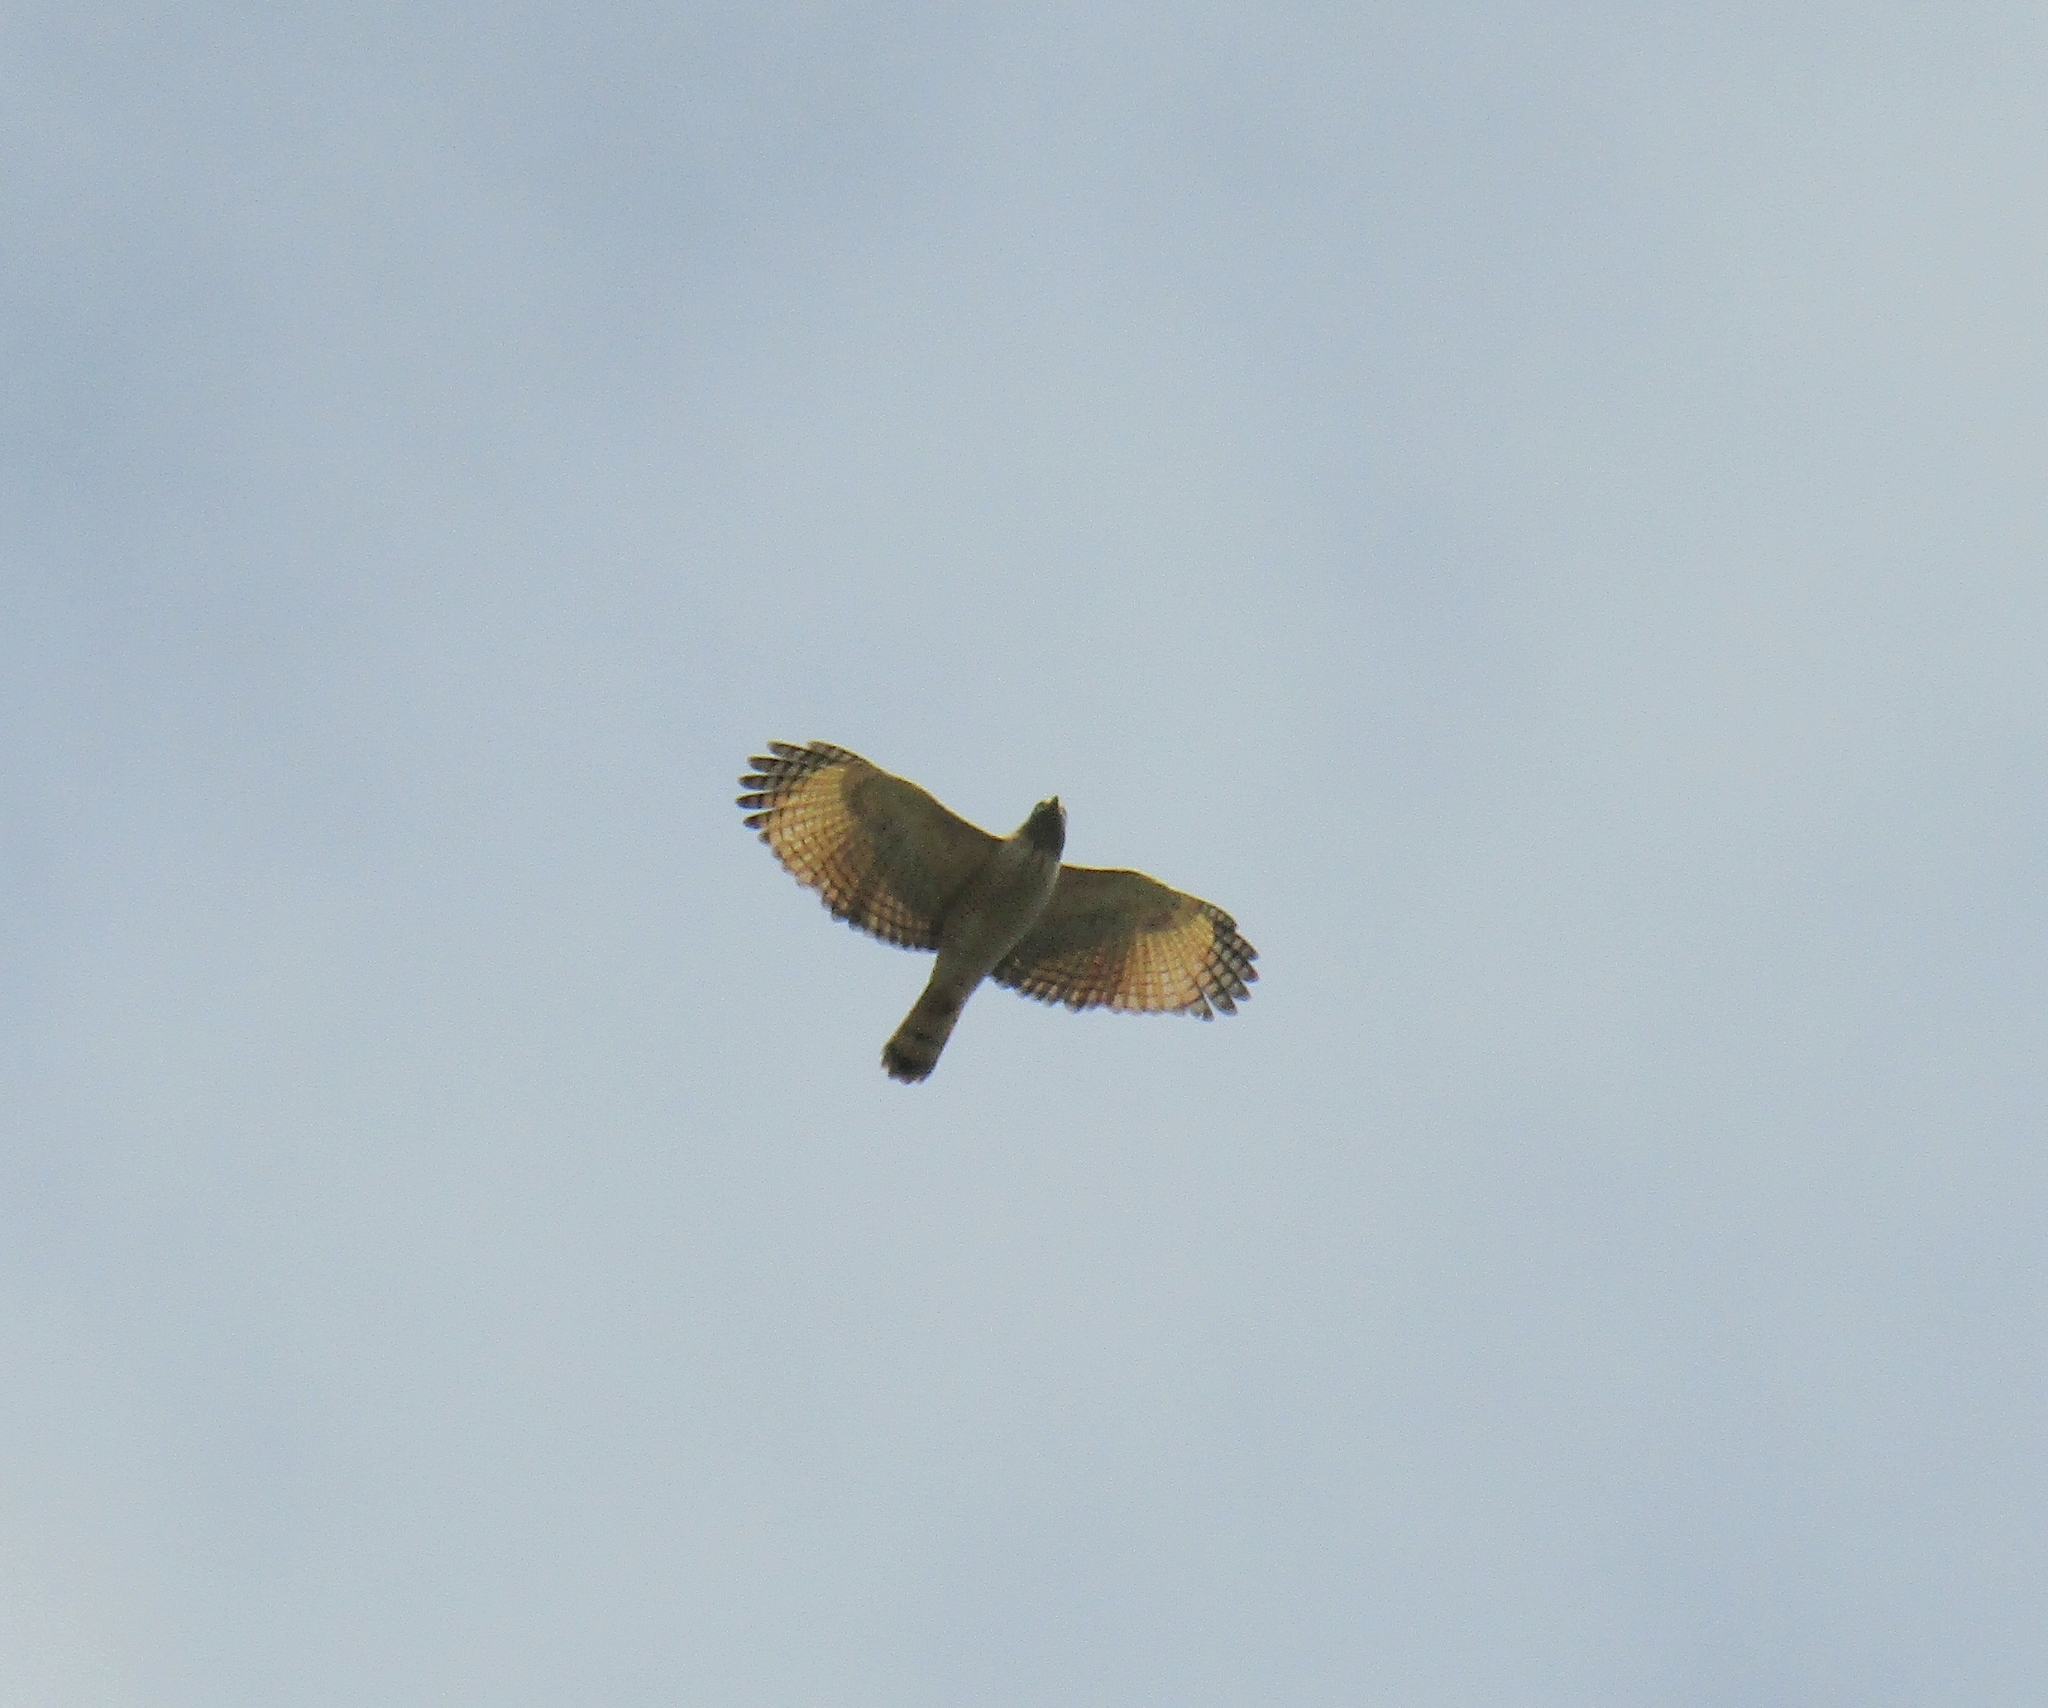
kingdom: Animalia
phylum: Chordata
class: Aves
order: Accipitriformes
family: Accipitridae
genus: Rupornis
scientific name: Rupornis magnirostris
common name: Roadside hawk
